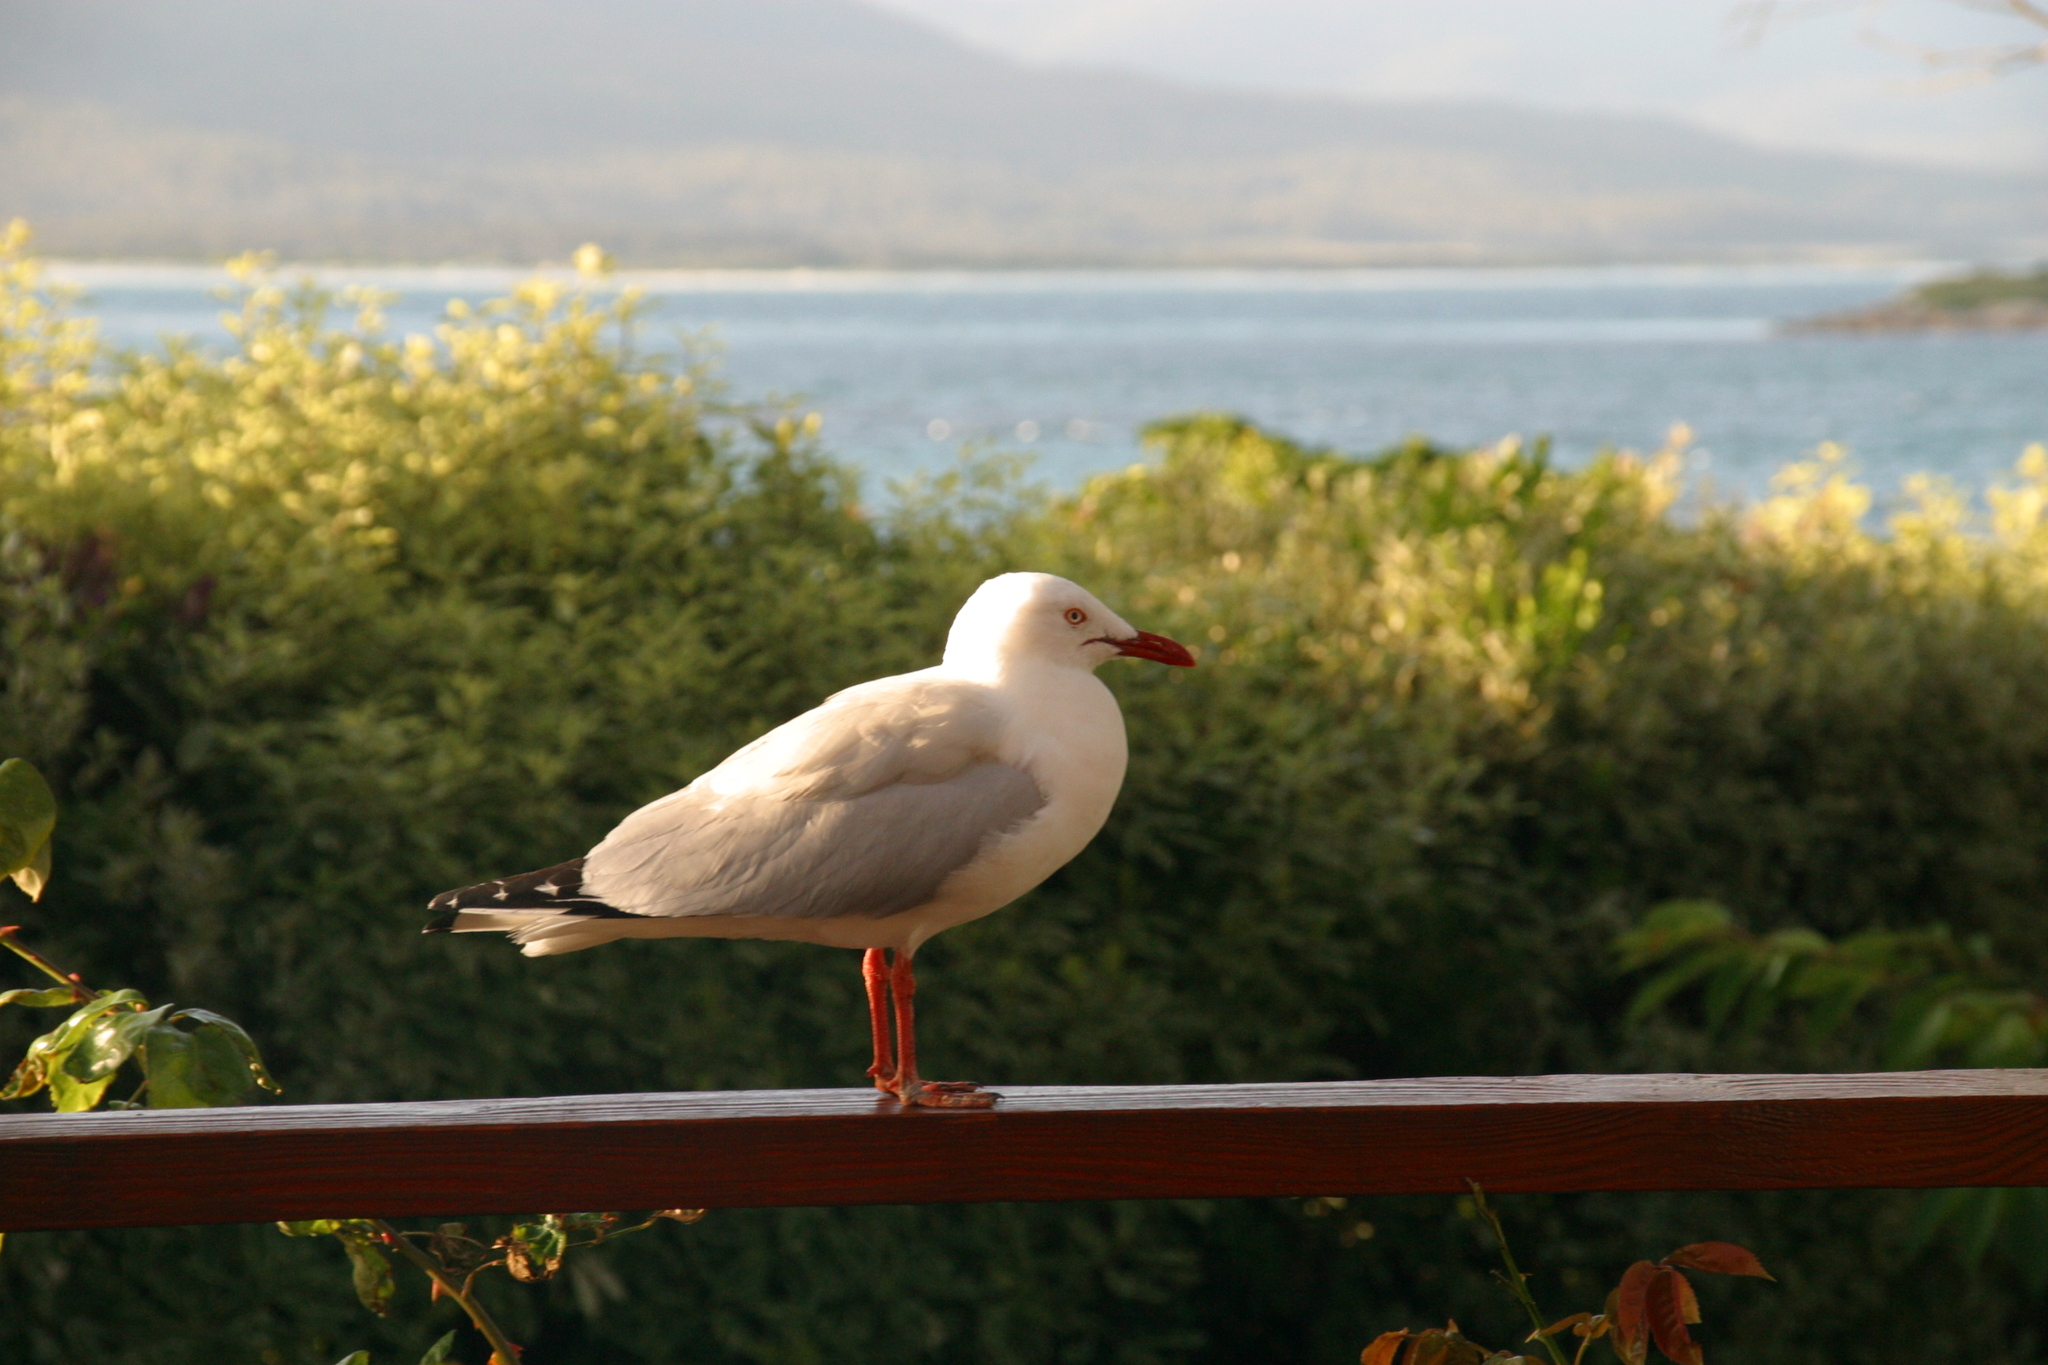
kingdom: Animalia
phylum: Chordata
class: Aves
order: Charadriiformes
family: Laridae
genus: Chroicocephalus
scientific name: Chroicocephalus novaehollandiae
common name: Silver gull
